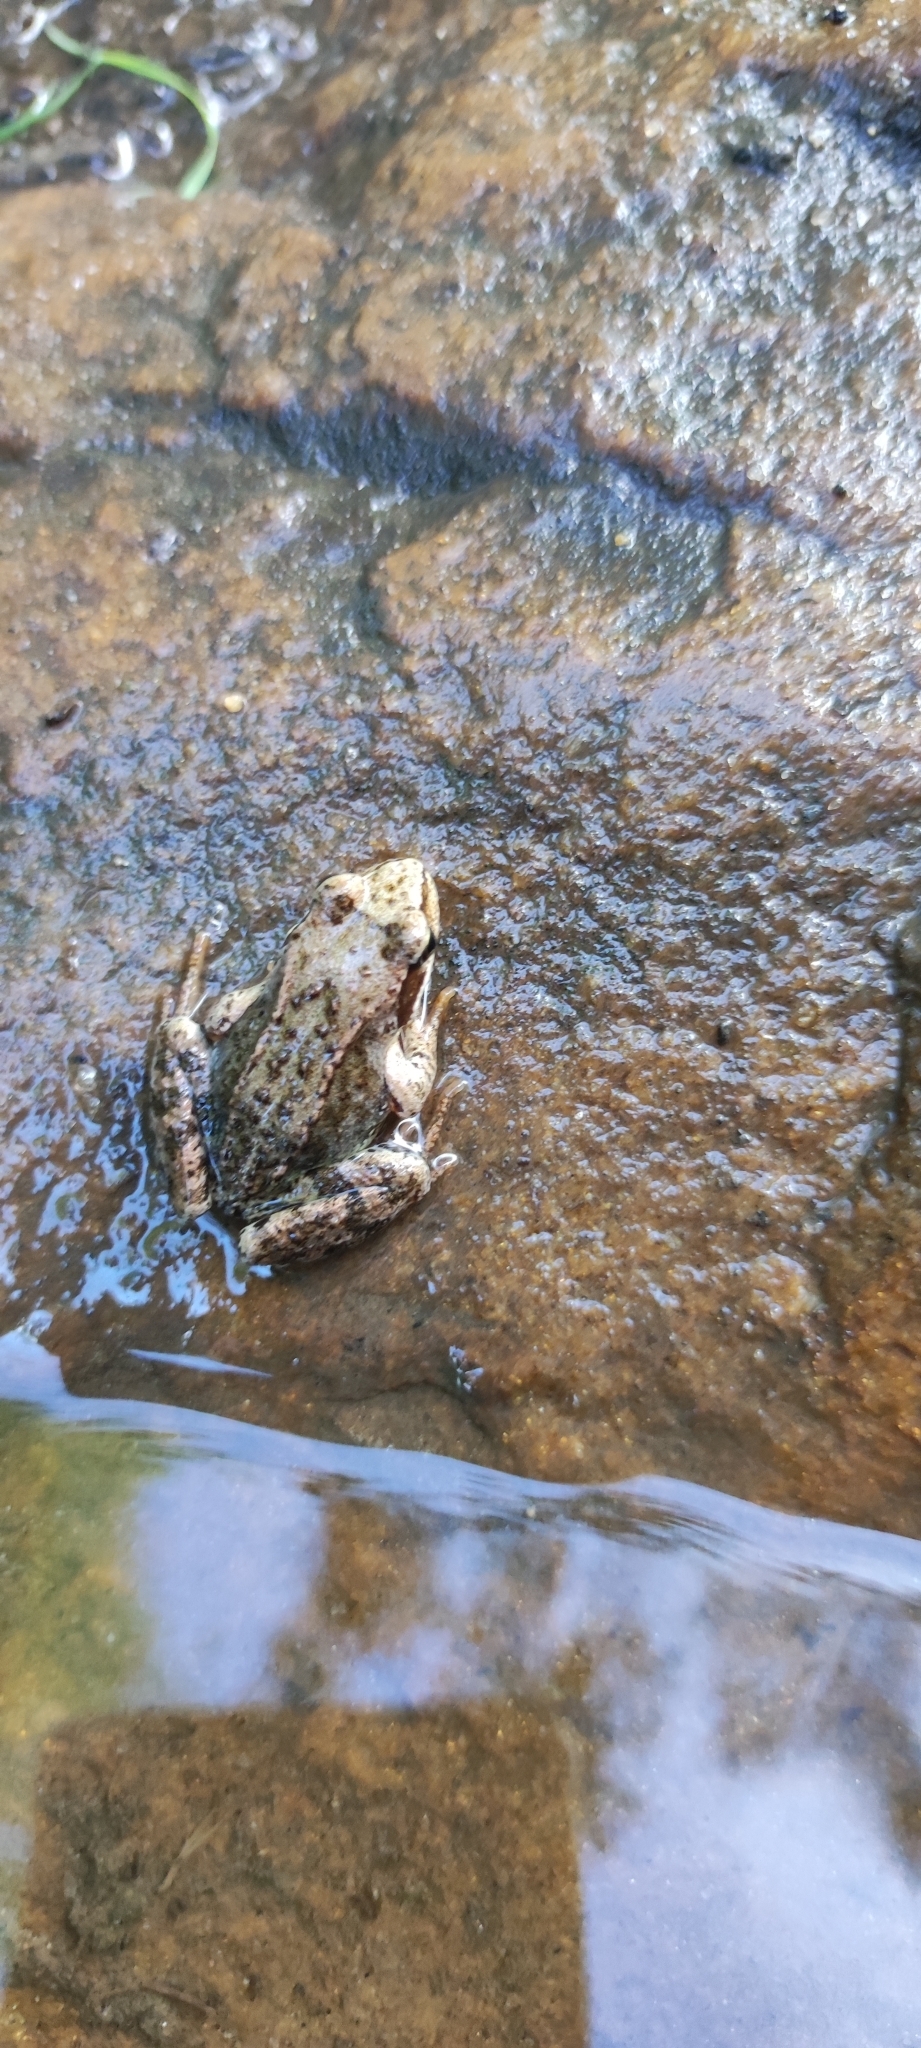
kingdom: Animalia
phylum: Chordata
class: Amphibia
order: Anura
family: Ranidae
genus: Rana
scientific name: Rana temporaria
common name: Common frog
